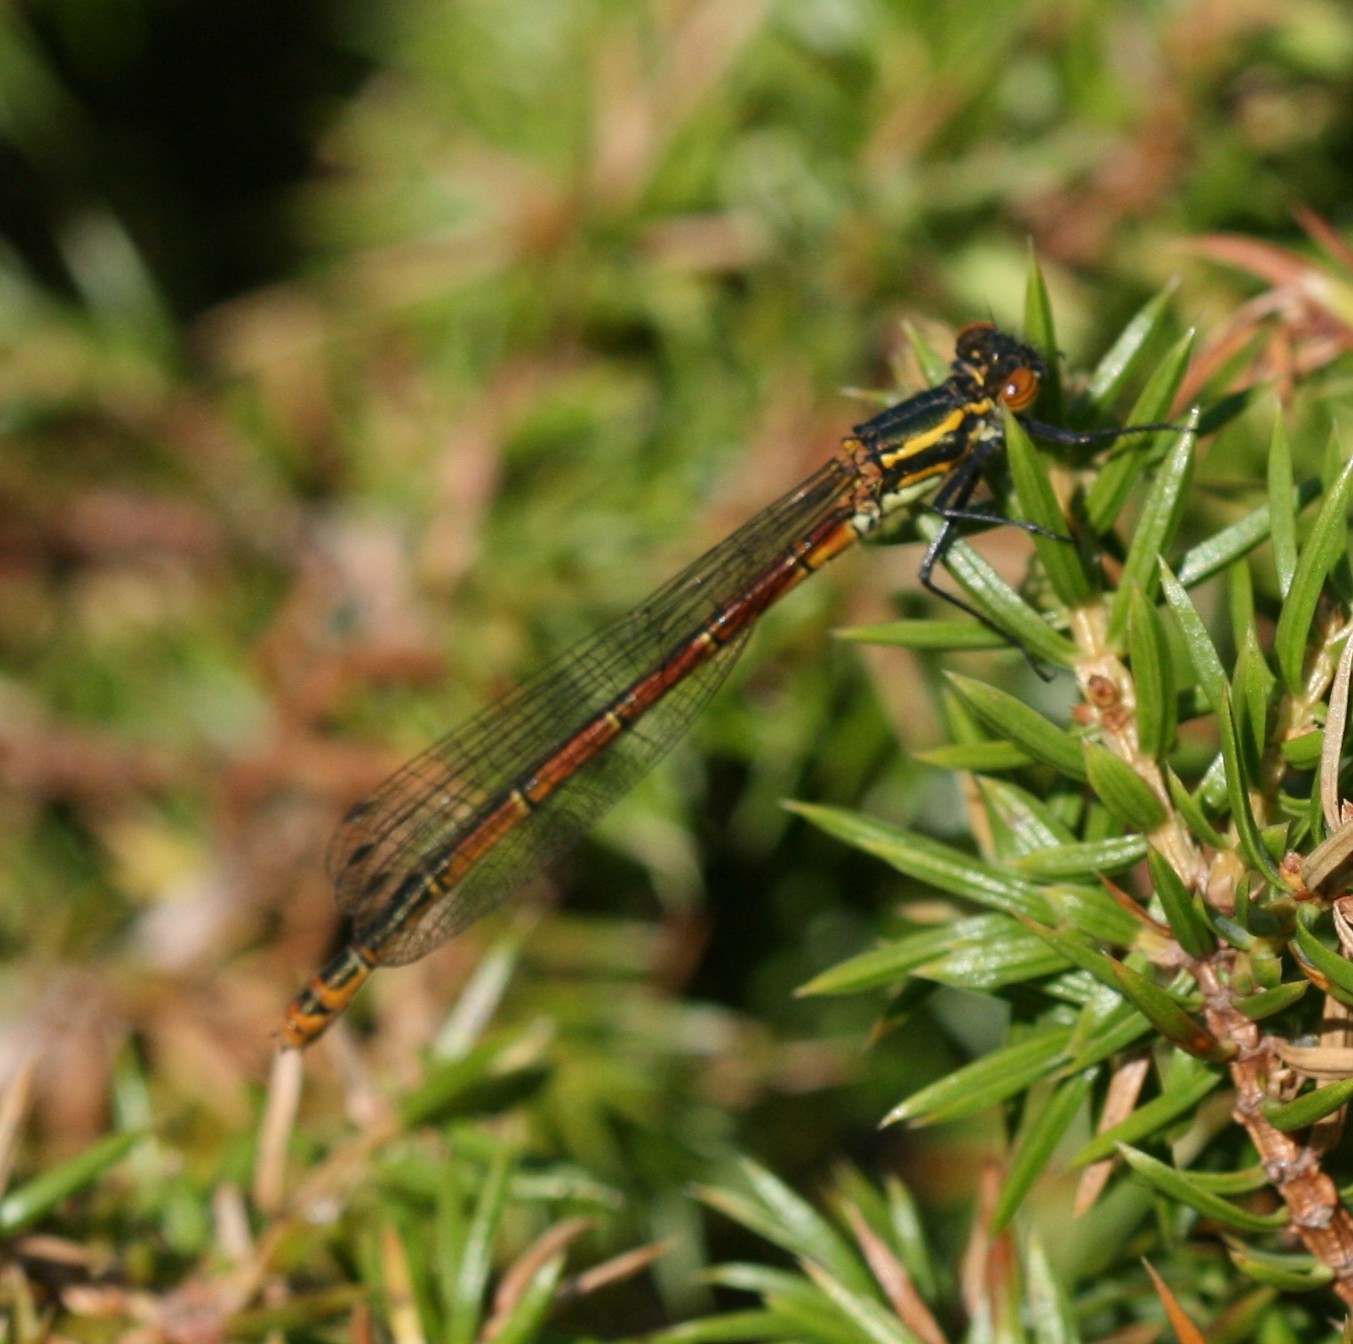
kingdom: Animalia
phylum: Arthropoda
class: Insecta
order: Odonata
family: Coenagrionidae
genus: Pyrrhosoma
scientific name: Pyrrhosoma nymphula
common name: Large red damsel
